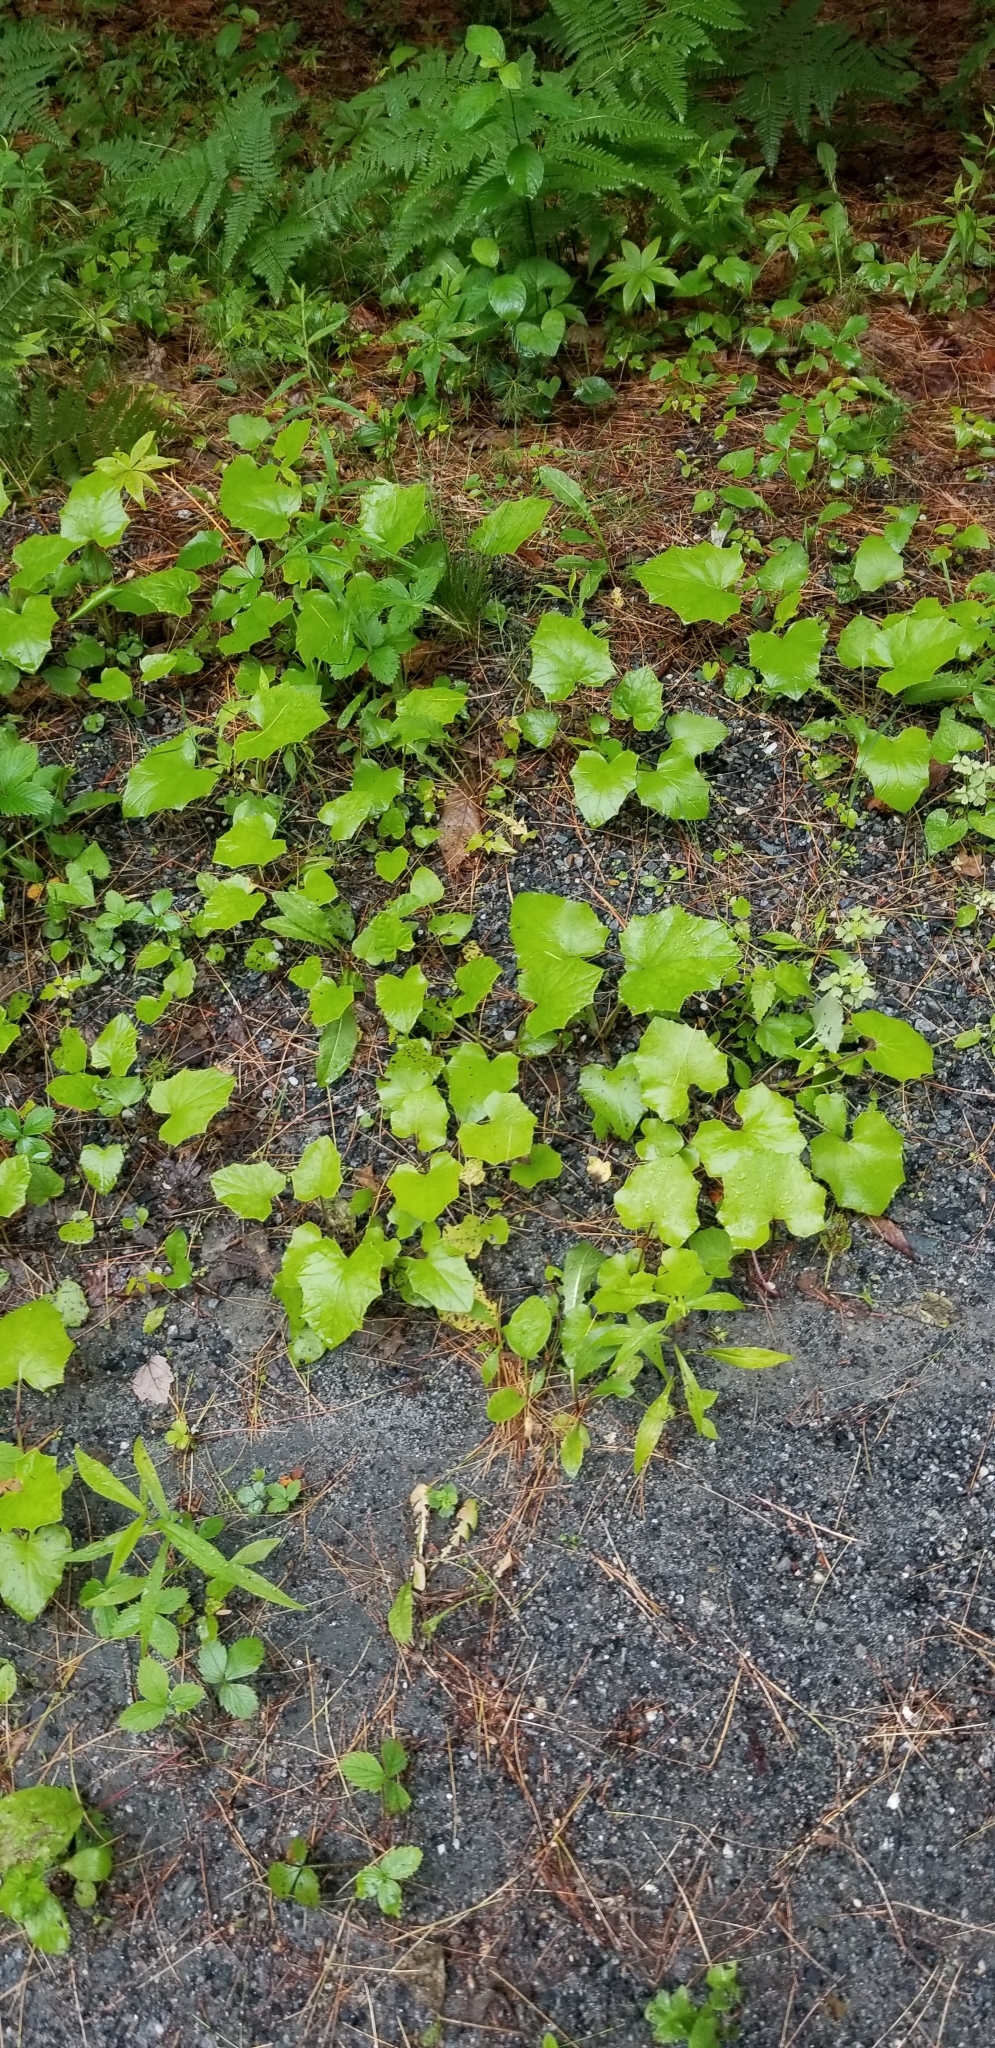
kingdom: Plantae
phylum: Tracheophyta
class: Magnoliopsida
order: Asterales
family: Asteraceae
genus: Tussilago
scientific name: Tussilago farfara
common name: Coltsfoot
